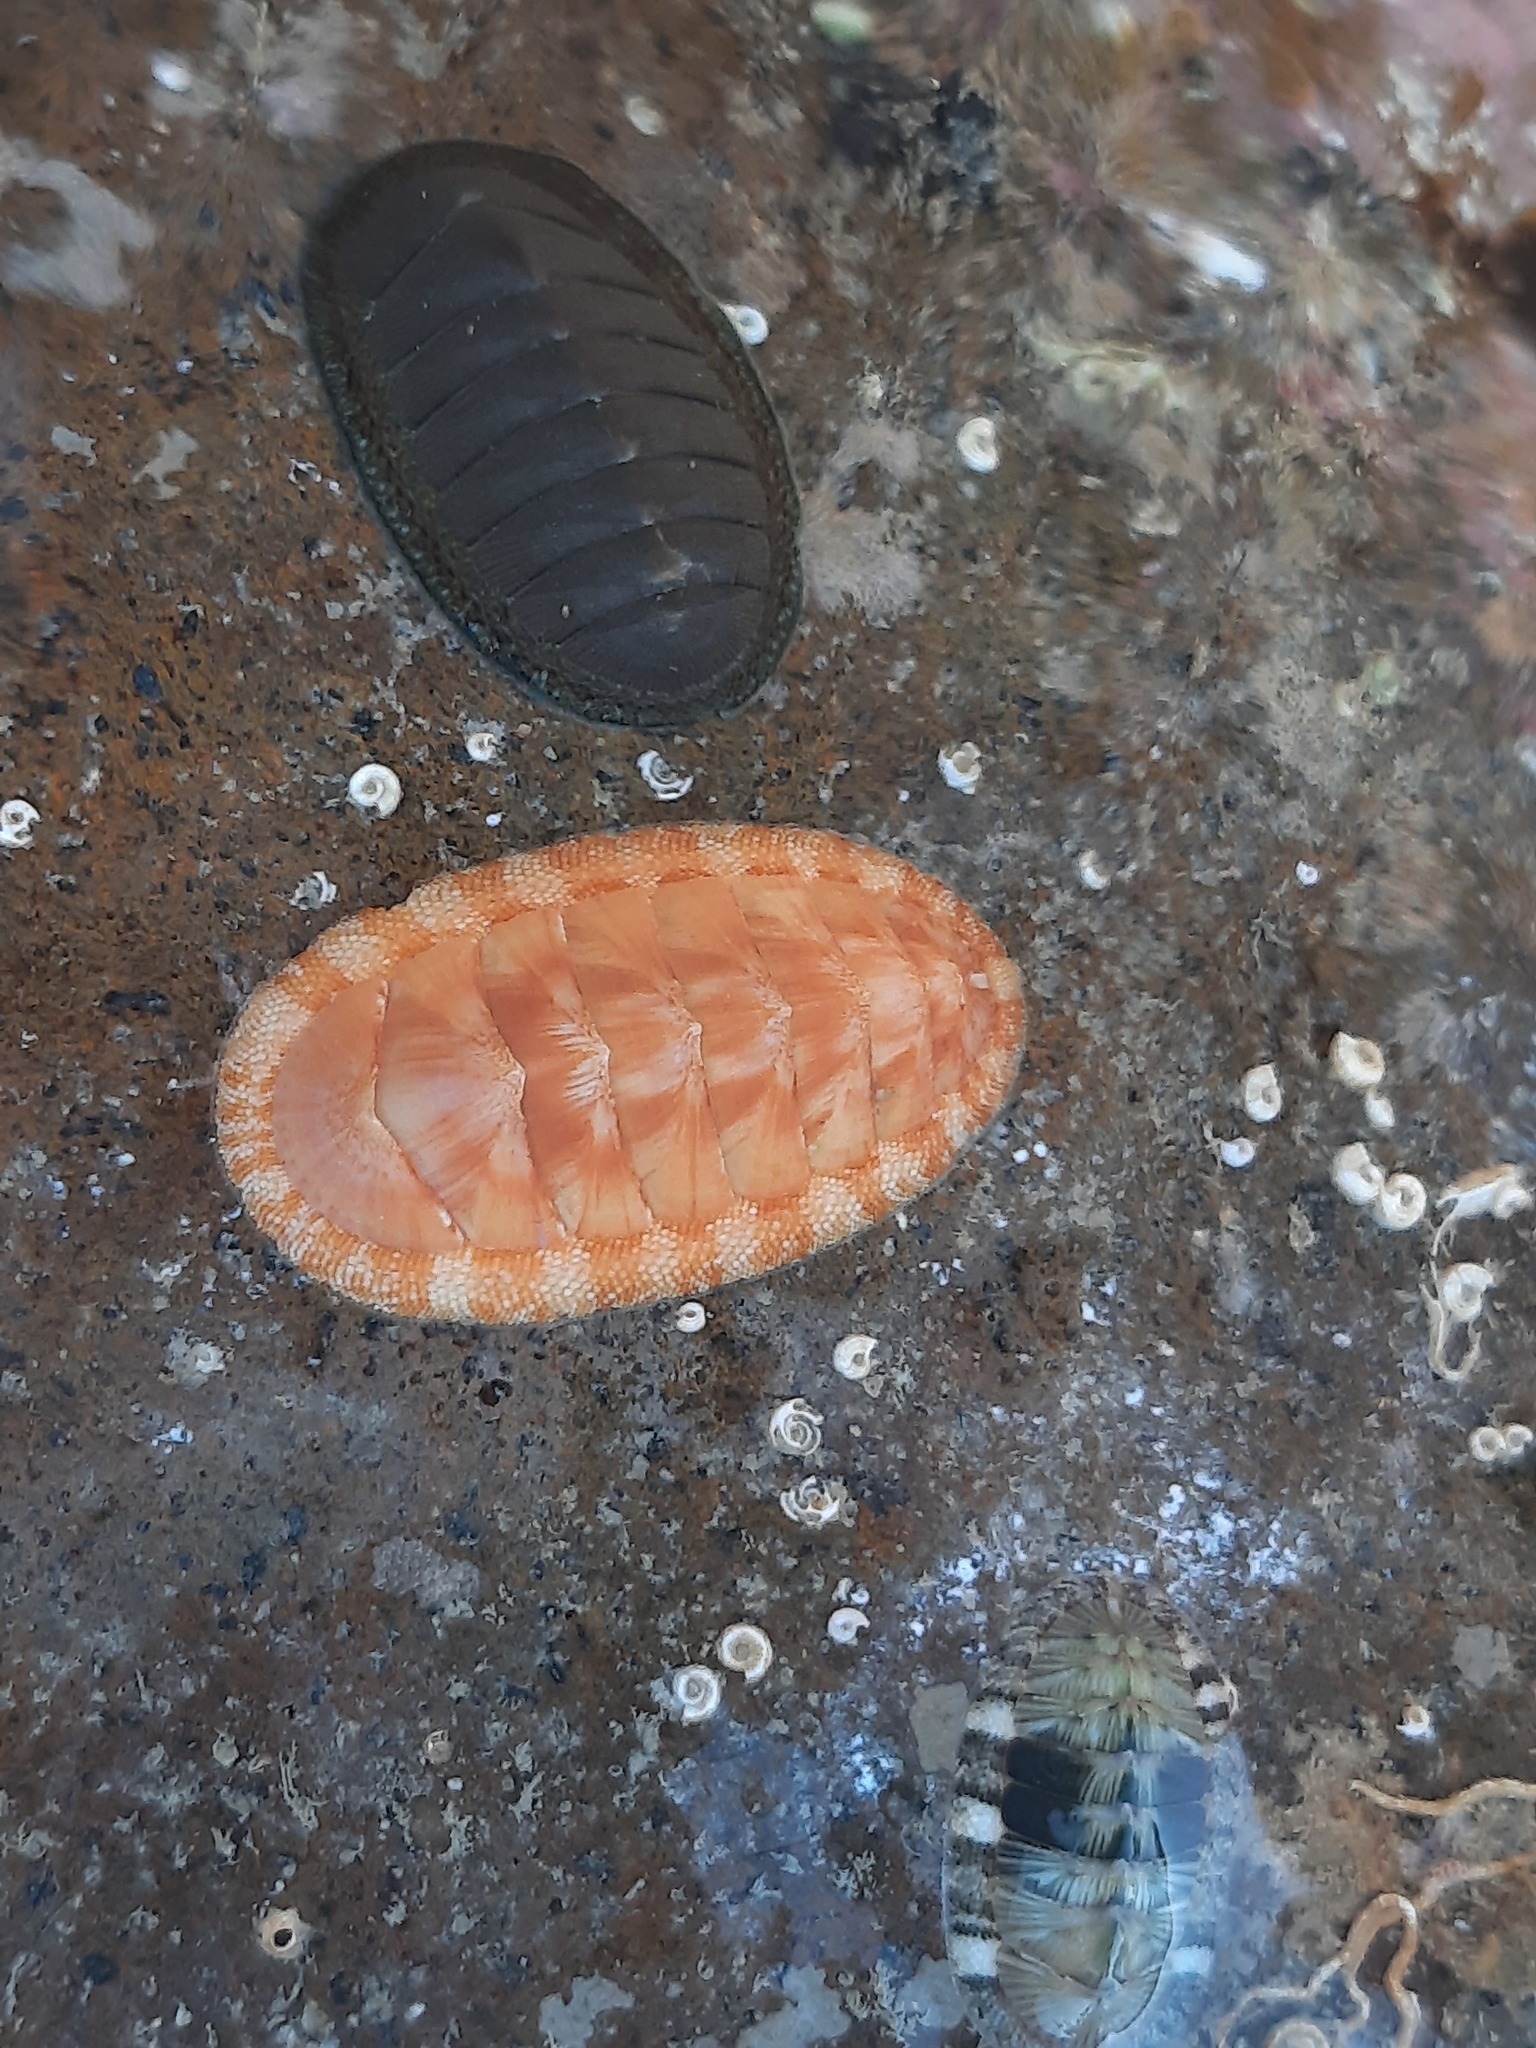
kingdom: Animalia
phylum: Mollusca
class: Polyplacophora
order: Chitonida
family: Chitonidae
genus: Rhyssoplax
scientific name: Rhyssoplax aerea
